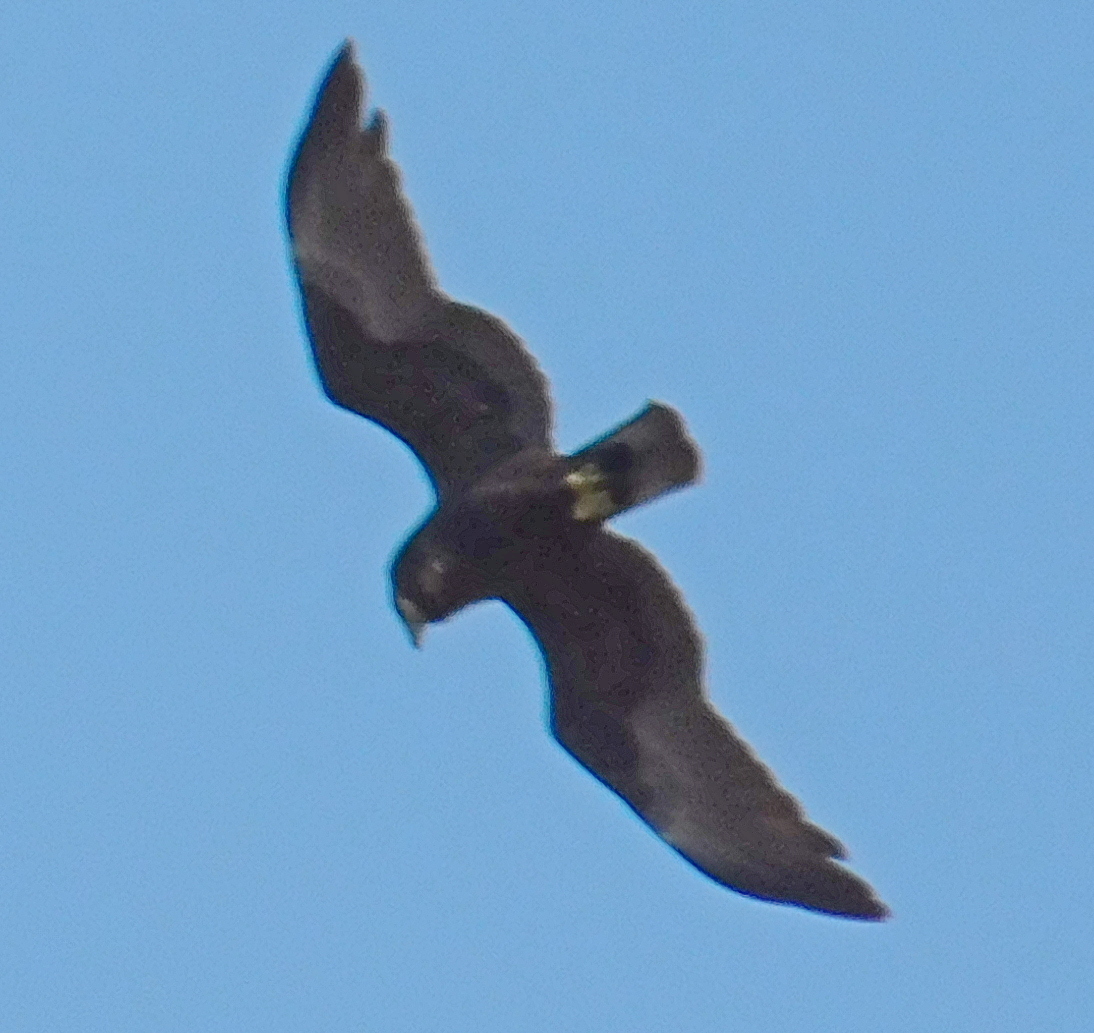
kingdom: Animalia
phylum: Chordata
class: Aves
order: Accipitriformes
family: Accipitridae
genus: Circus
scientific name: Circus aeruginosus
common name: Western marsh harrier
